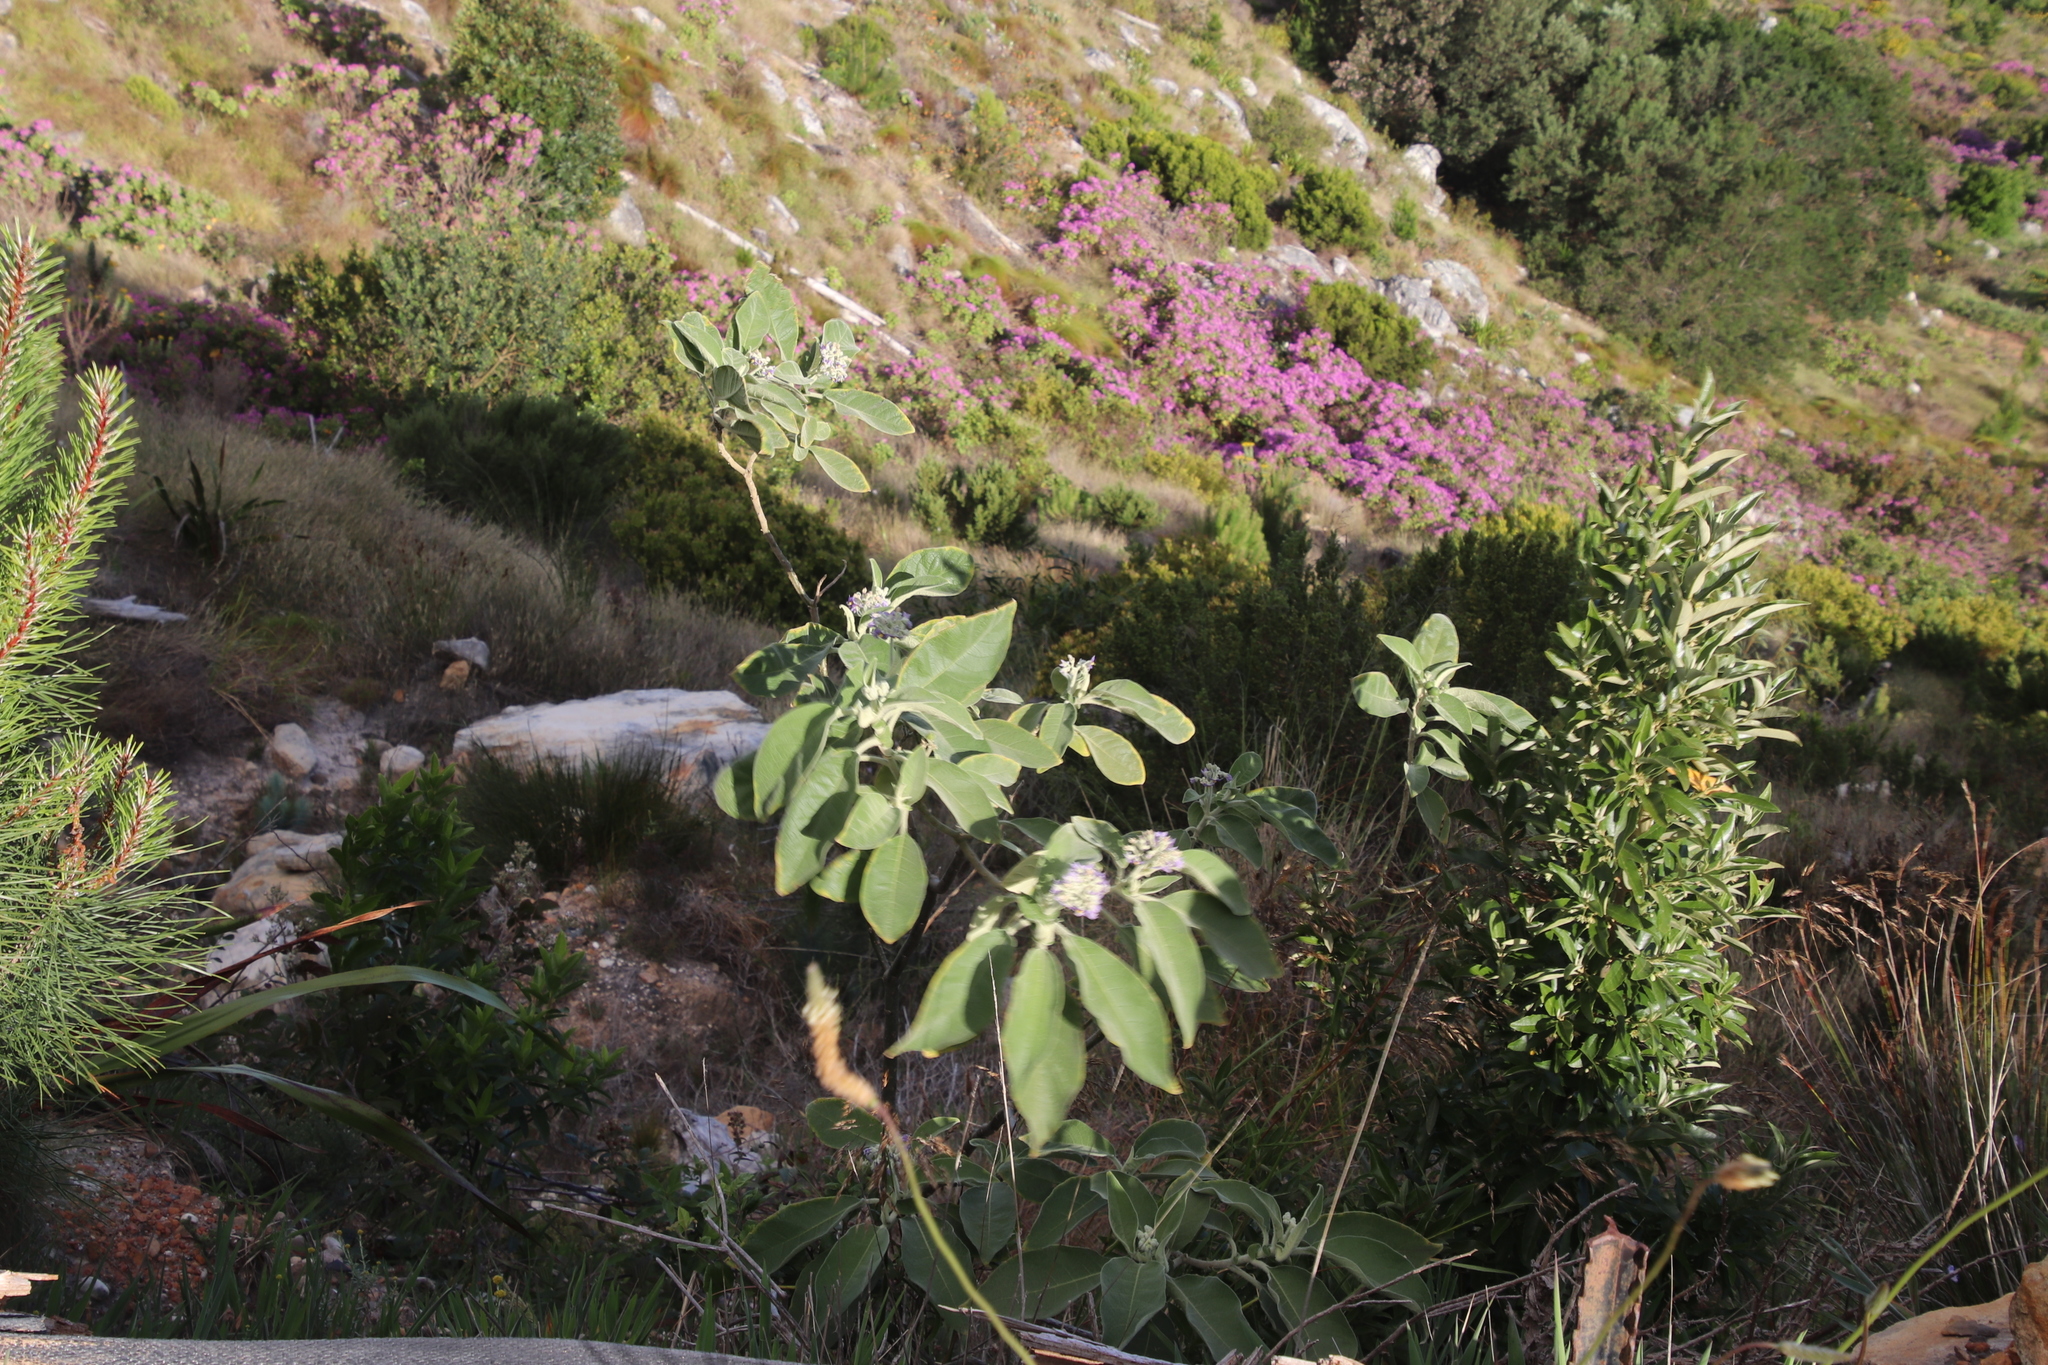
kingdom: Plantae
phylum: Tracheophyta
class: Magnoliopsida
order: Solanales
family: Solanaceae
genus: Solanum
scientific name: Solanum mauritianum
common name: Earleaf nightshade
